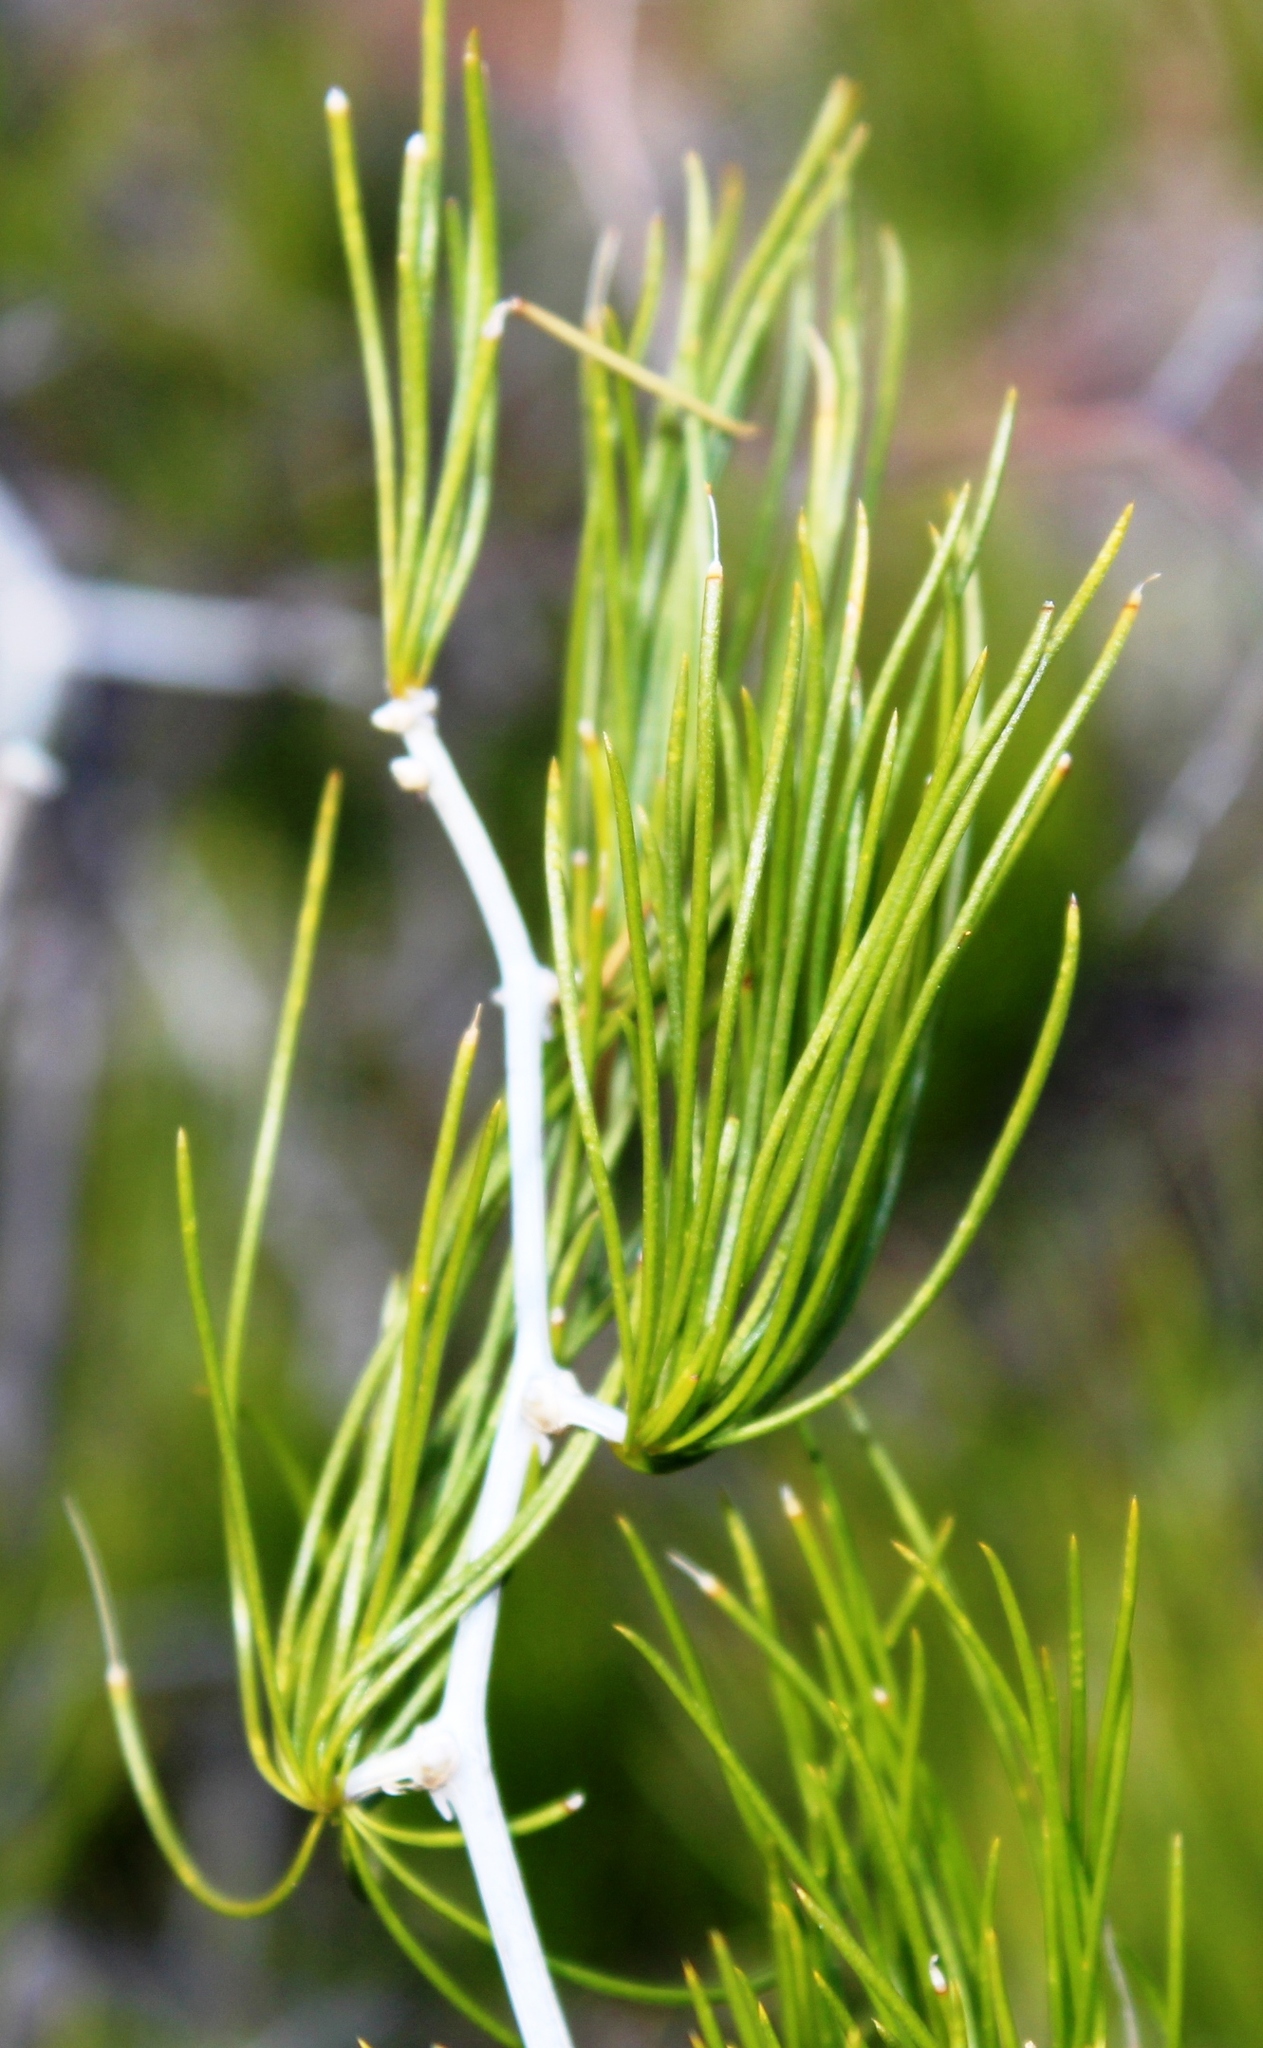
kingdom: Plantae
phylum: Tracheophyta
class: Liliopsida
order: Asparagales
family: Asparagaceae
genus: Asparagus
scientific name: Asparagus retrofractus
